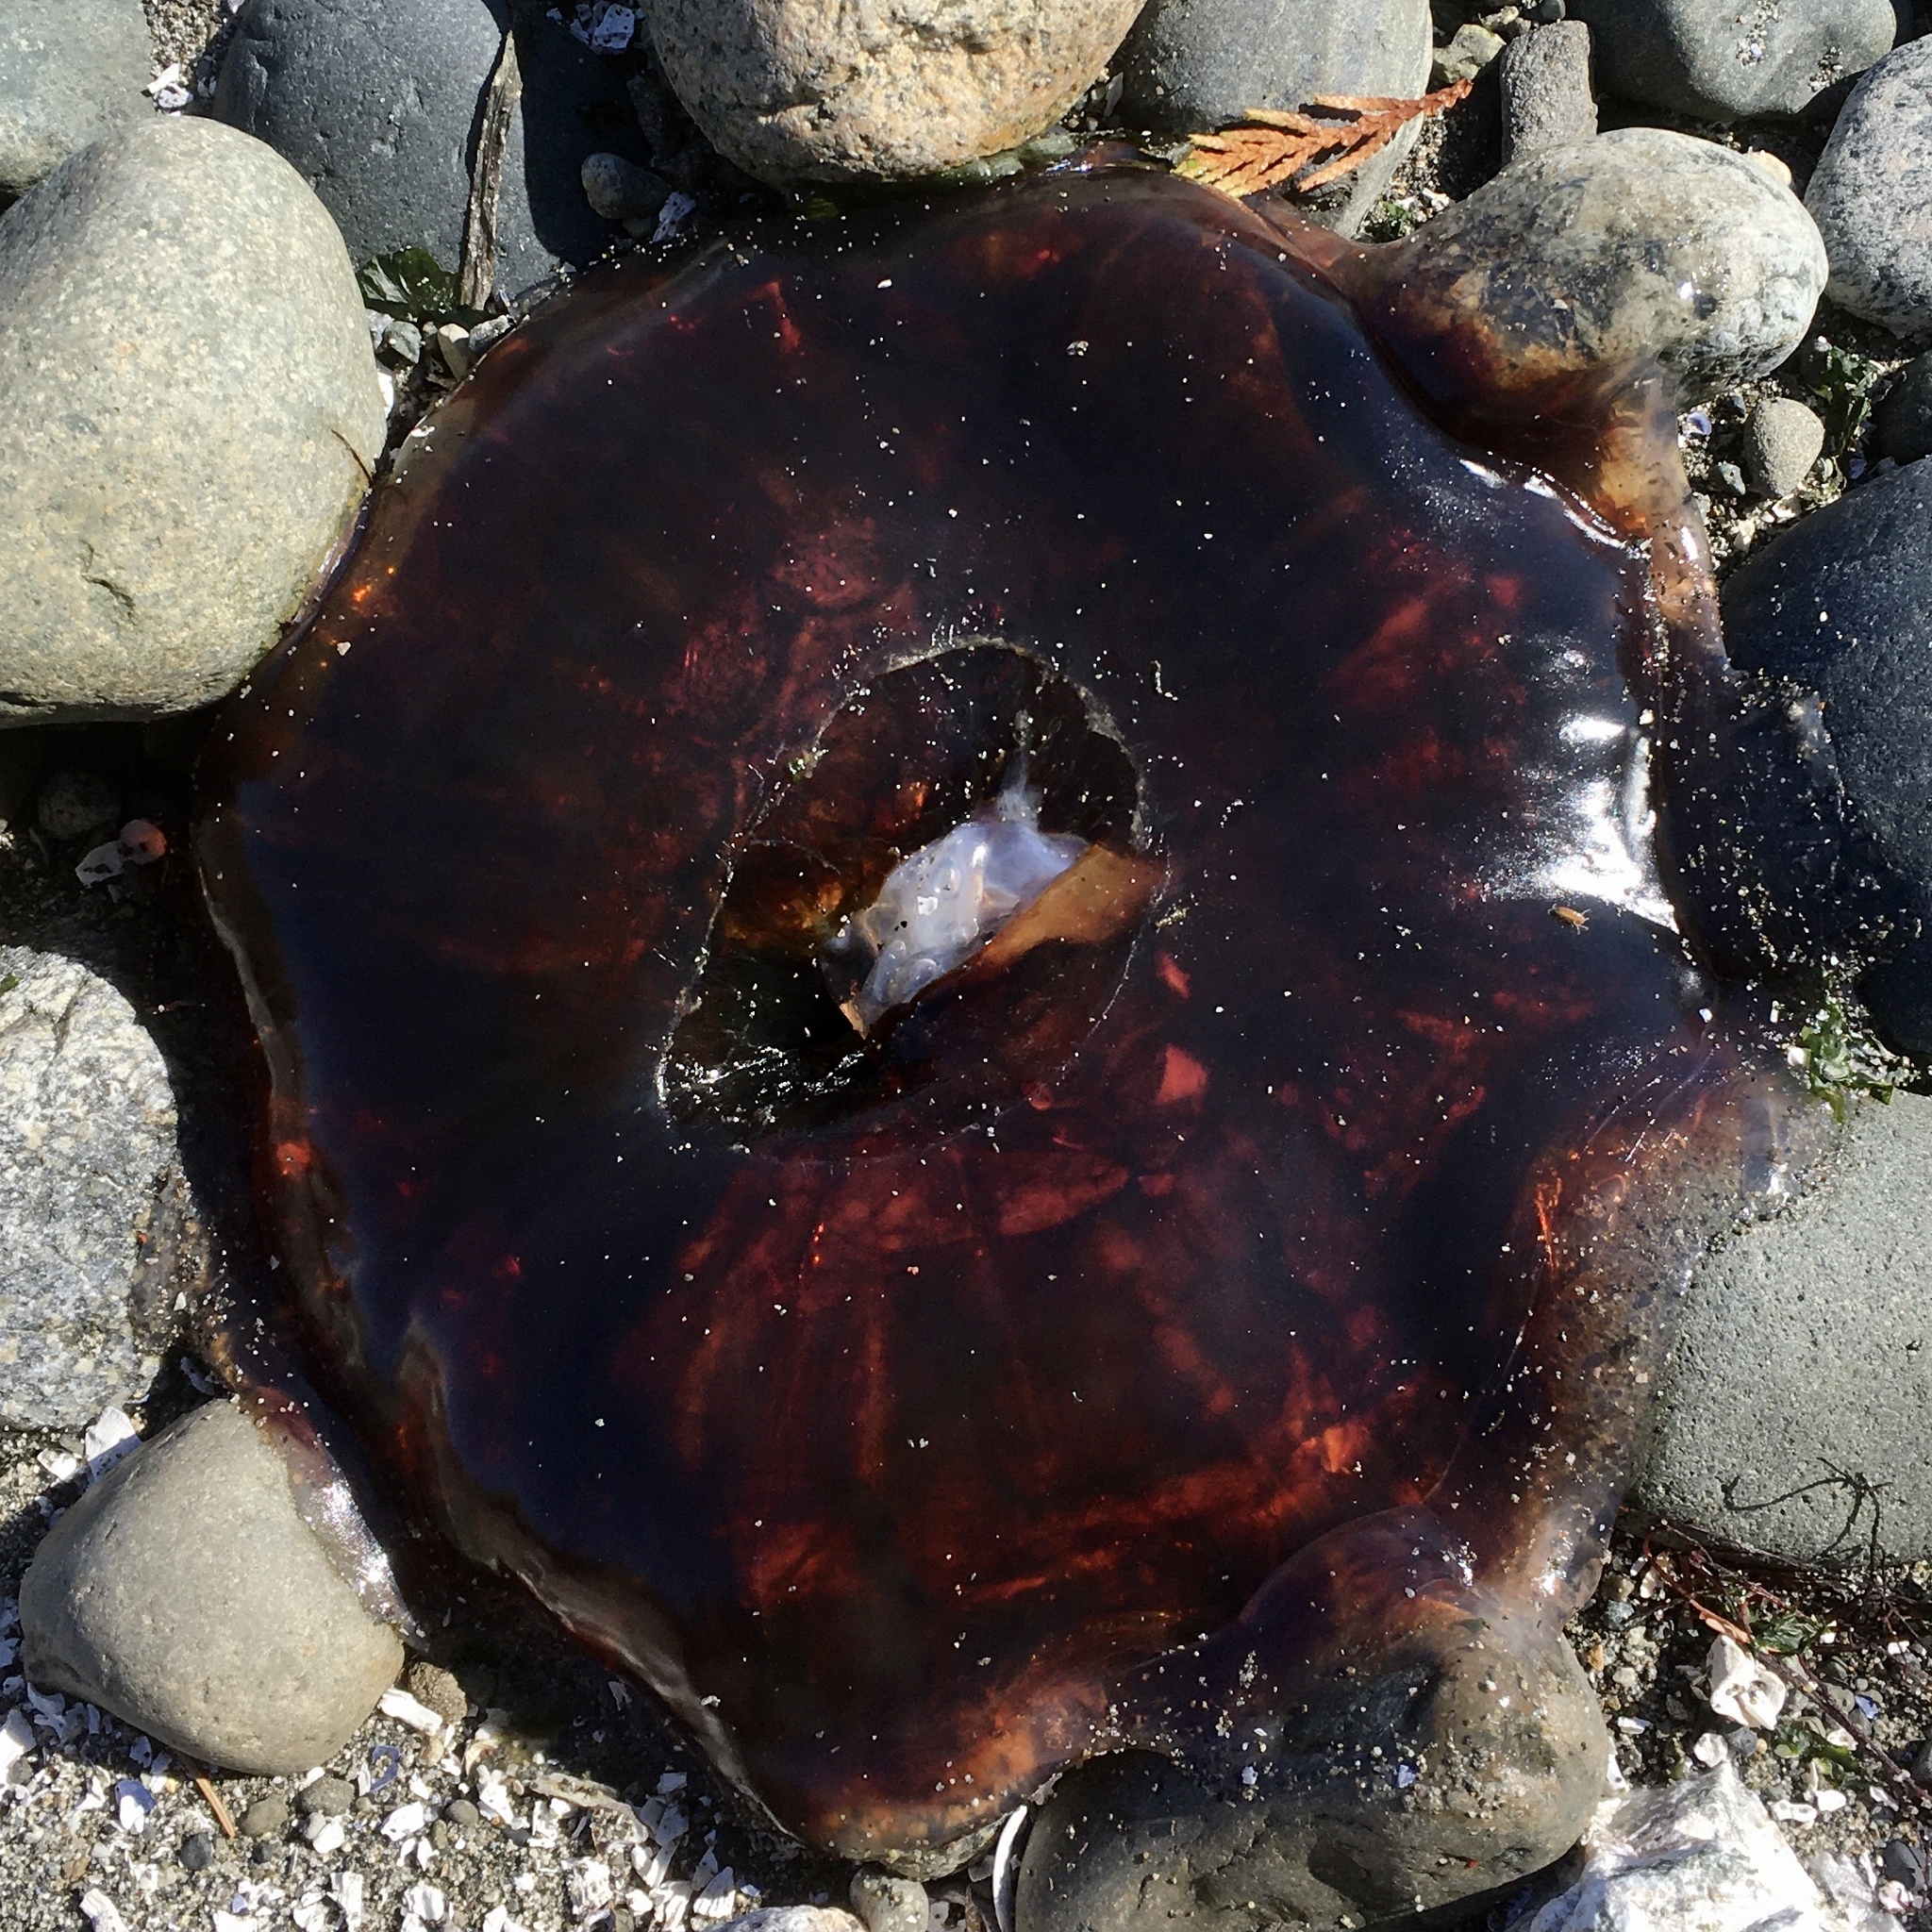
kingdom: Animalia
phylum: Cnidaria
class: Scyphozoa
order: Semaeostomeae
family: Cyaneidae
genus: Cyanea
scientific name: Cyanea ferruginea
